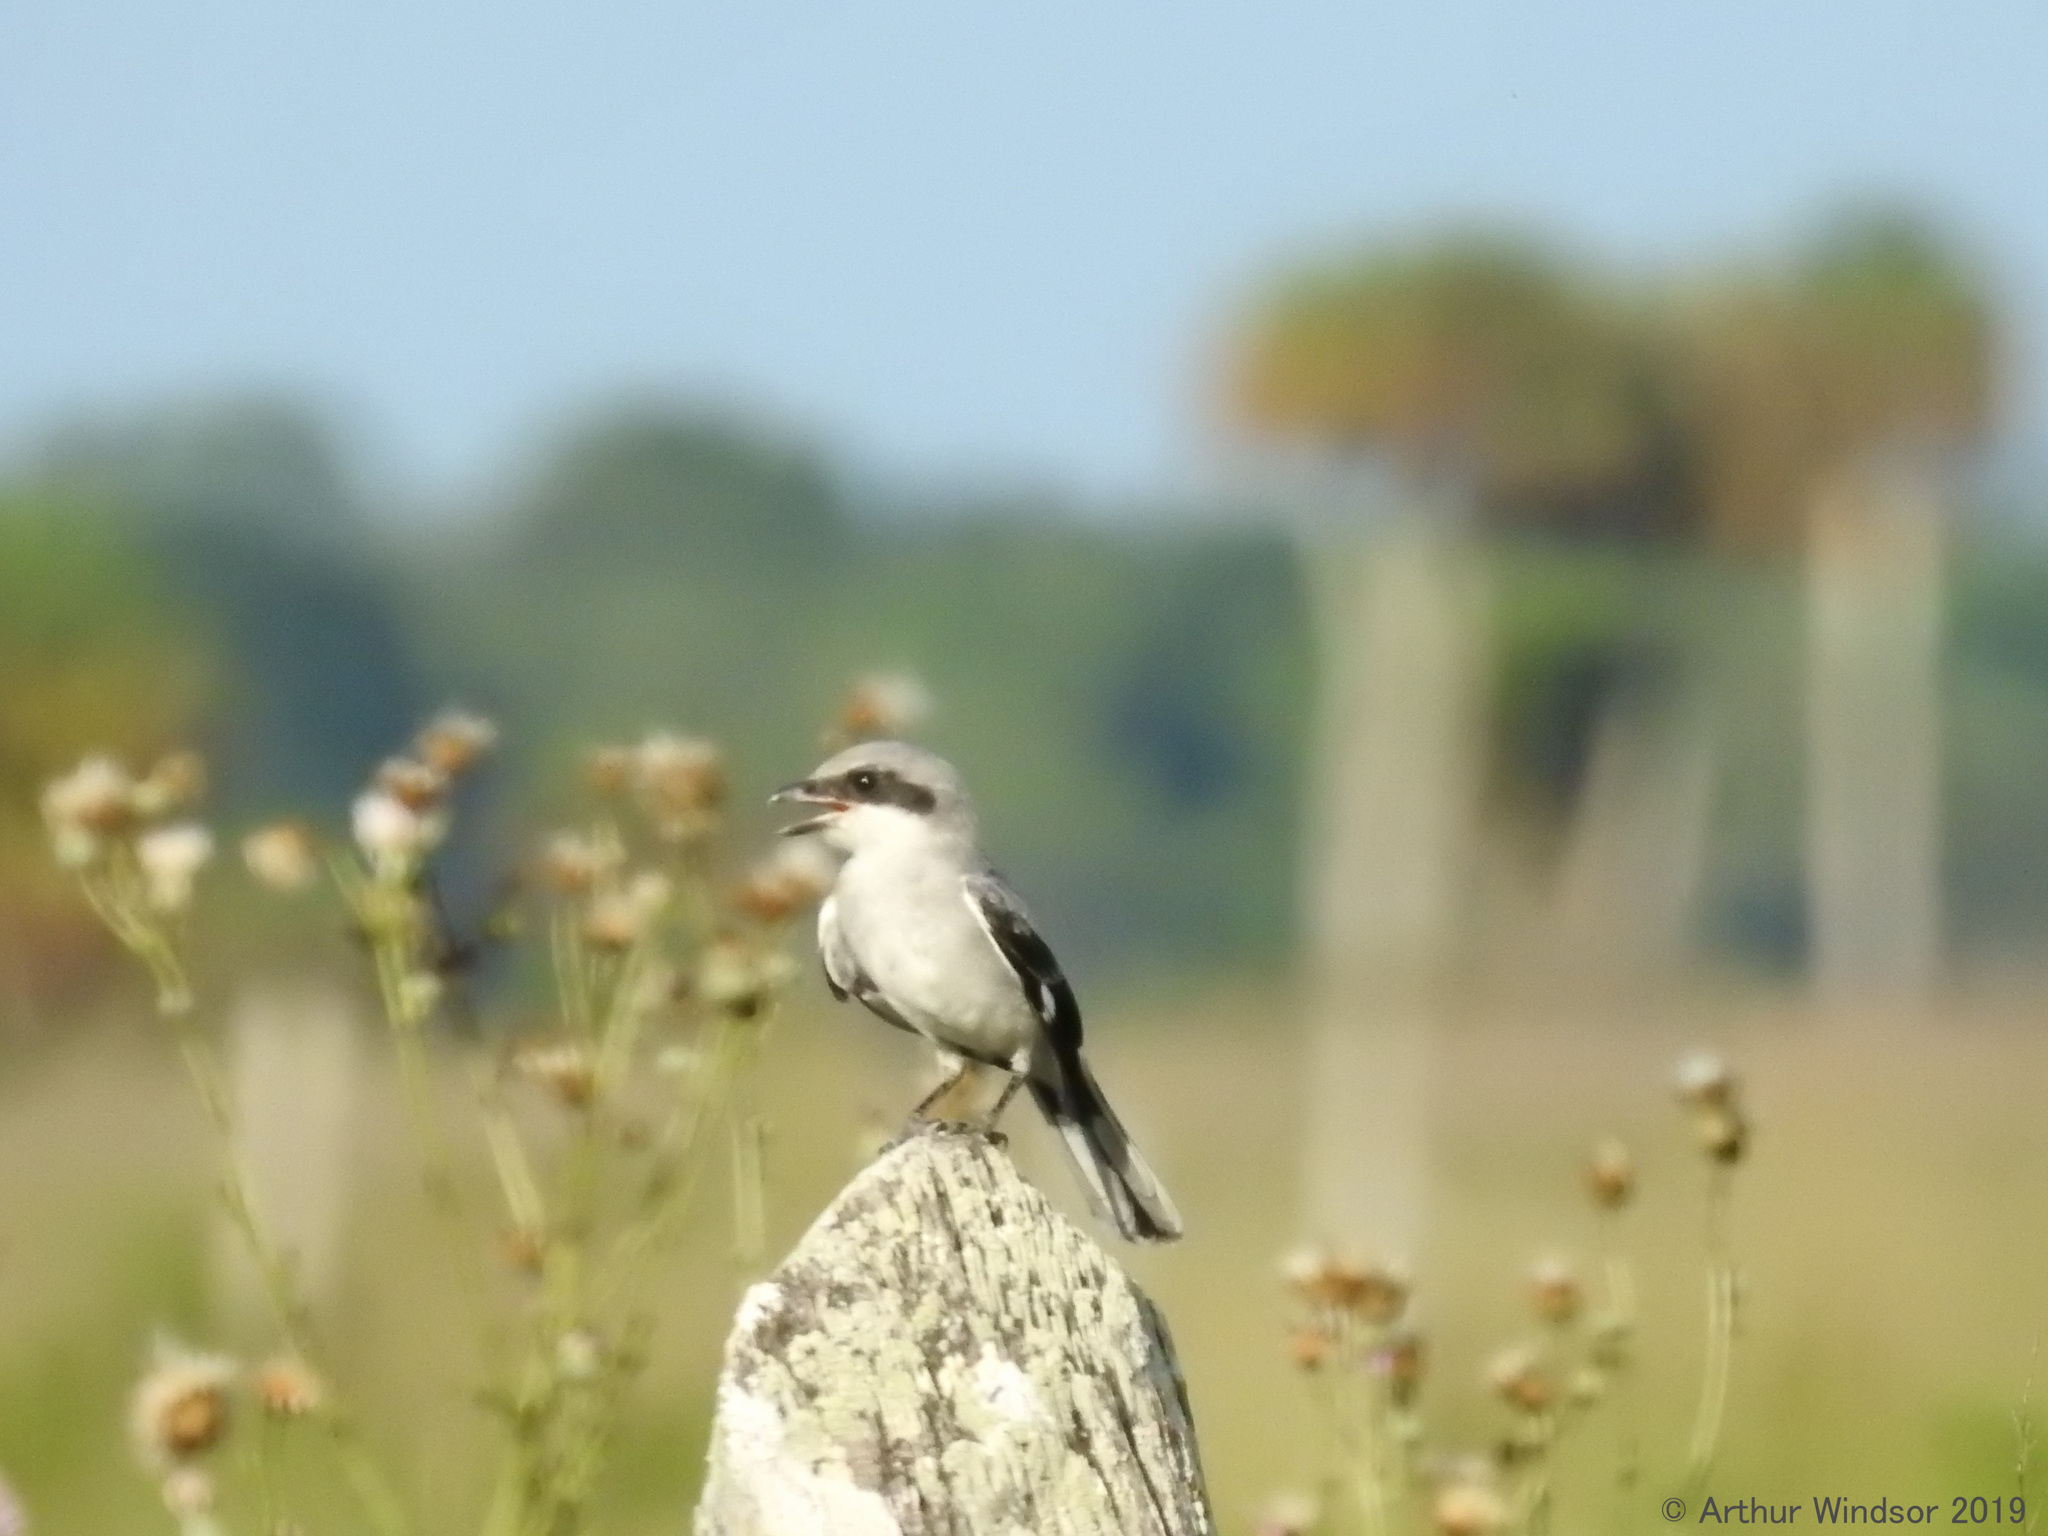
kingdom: Animalia
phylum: Chordata
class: Aves
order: Passeriformes
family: Laniidae
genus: Lanius
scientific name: Lanius ludovicianus
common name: Loggerhead shrike
